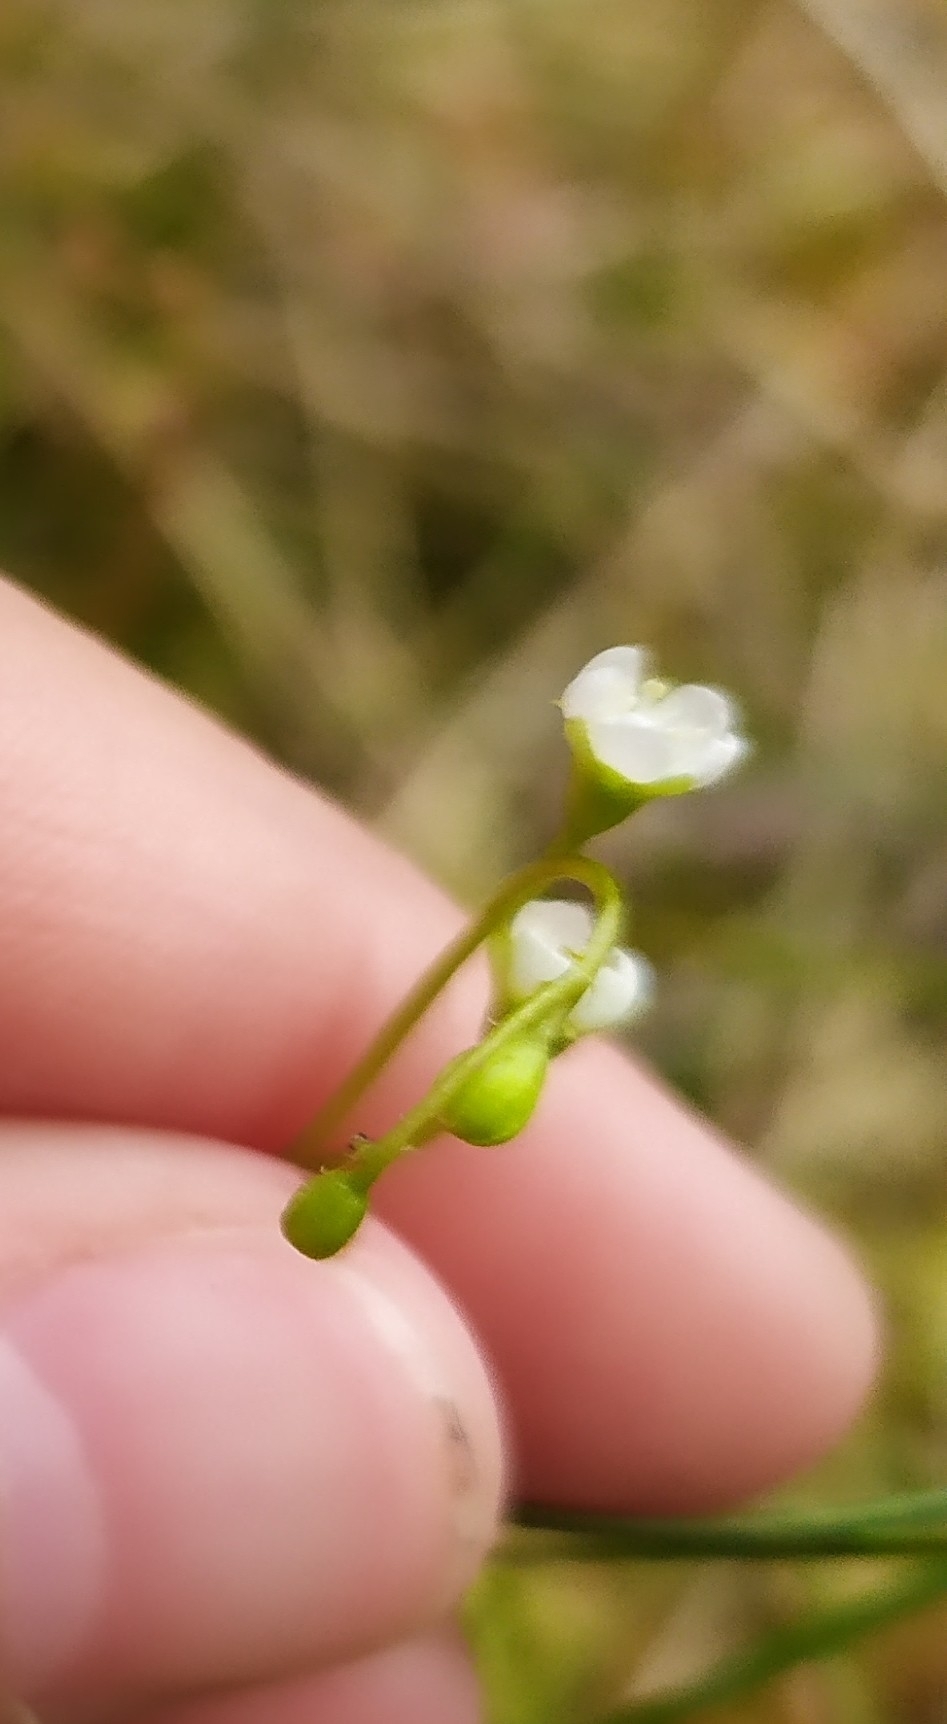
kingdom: Plantae
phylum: Tracheophyta
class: Magnoliopsida
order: Caryophyllales
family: Droseraceae
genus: Drosera
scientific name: Drosera
